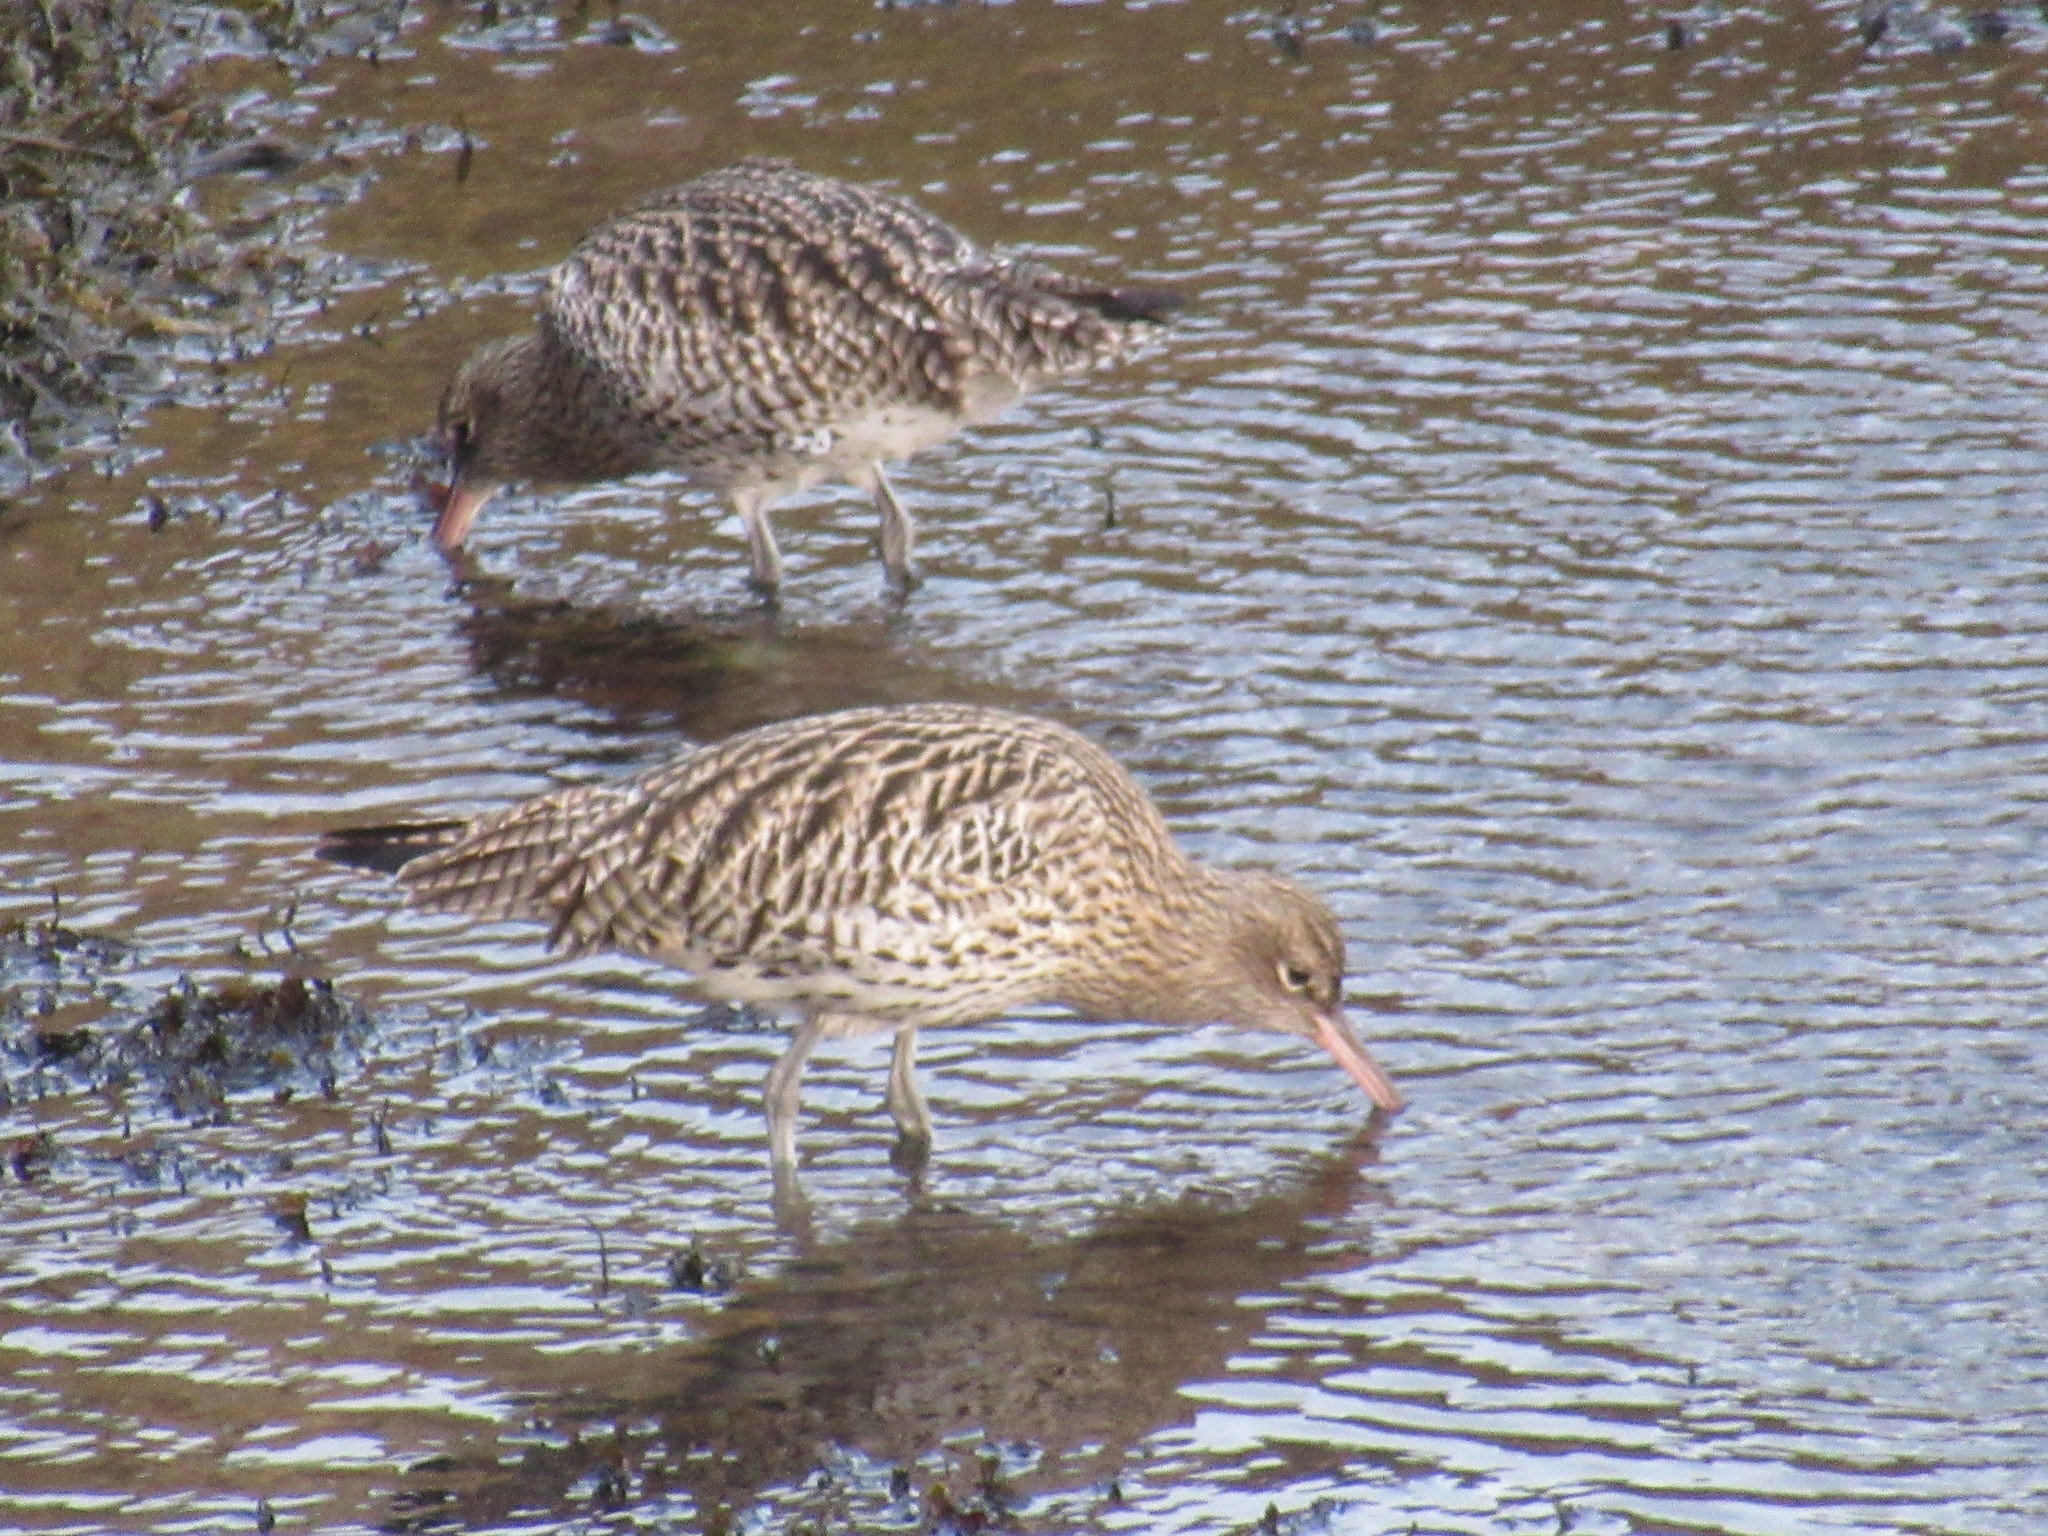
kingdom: Animalia
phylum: Chordata
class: Aves
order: Charadriiformes
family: Scolopacidae
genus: Numenius
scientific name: Numenius arquata
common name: Eurasian curlew
